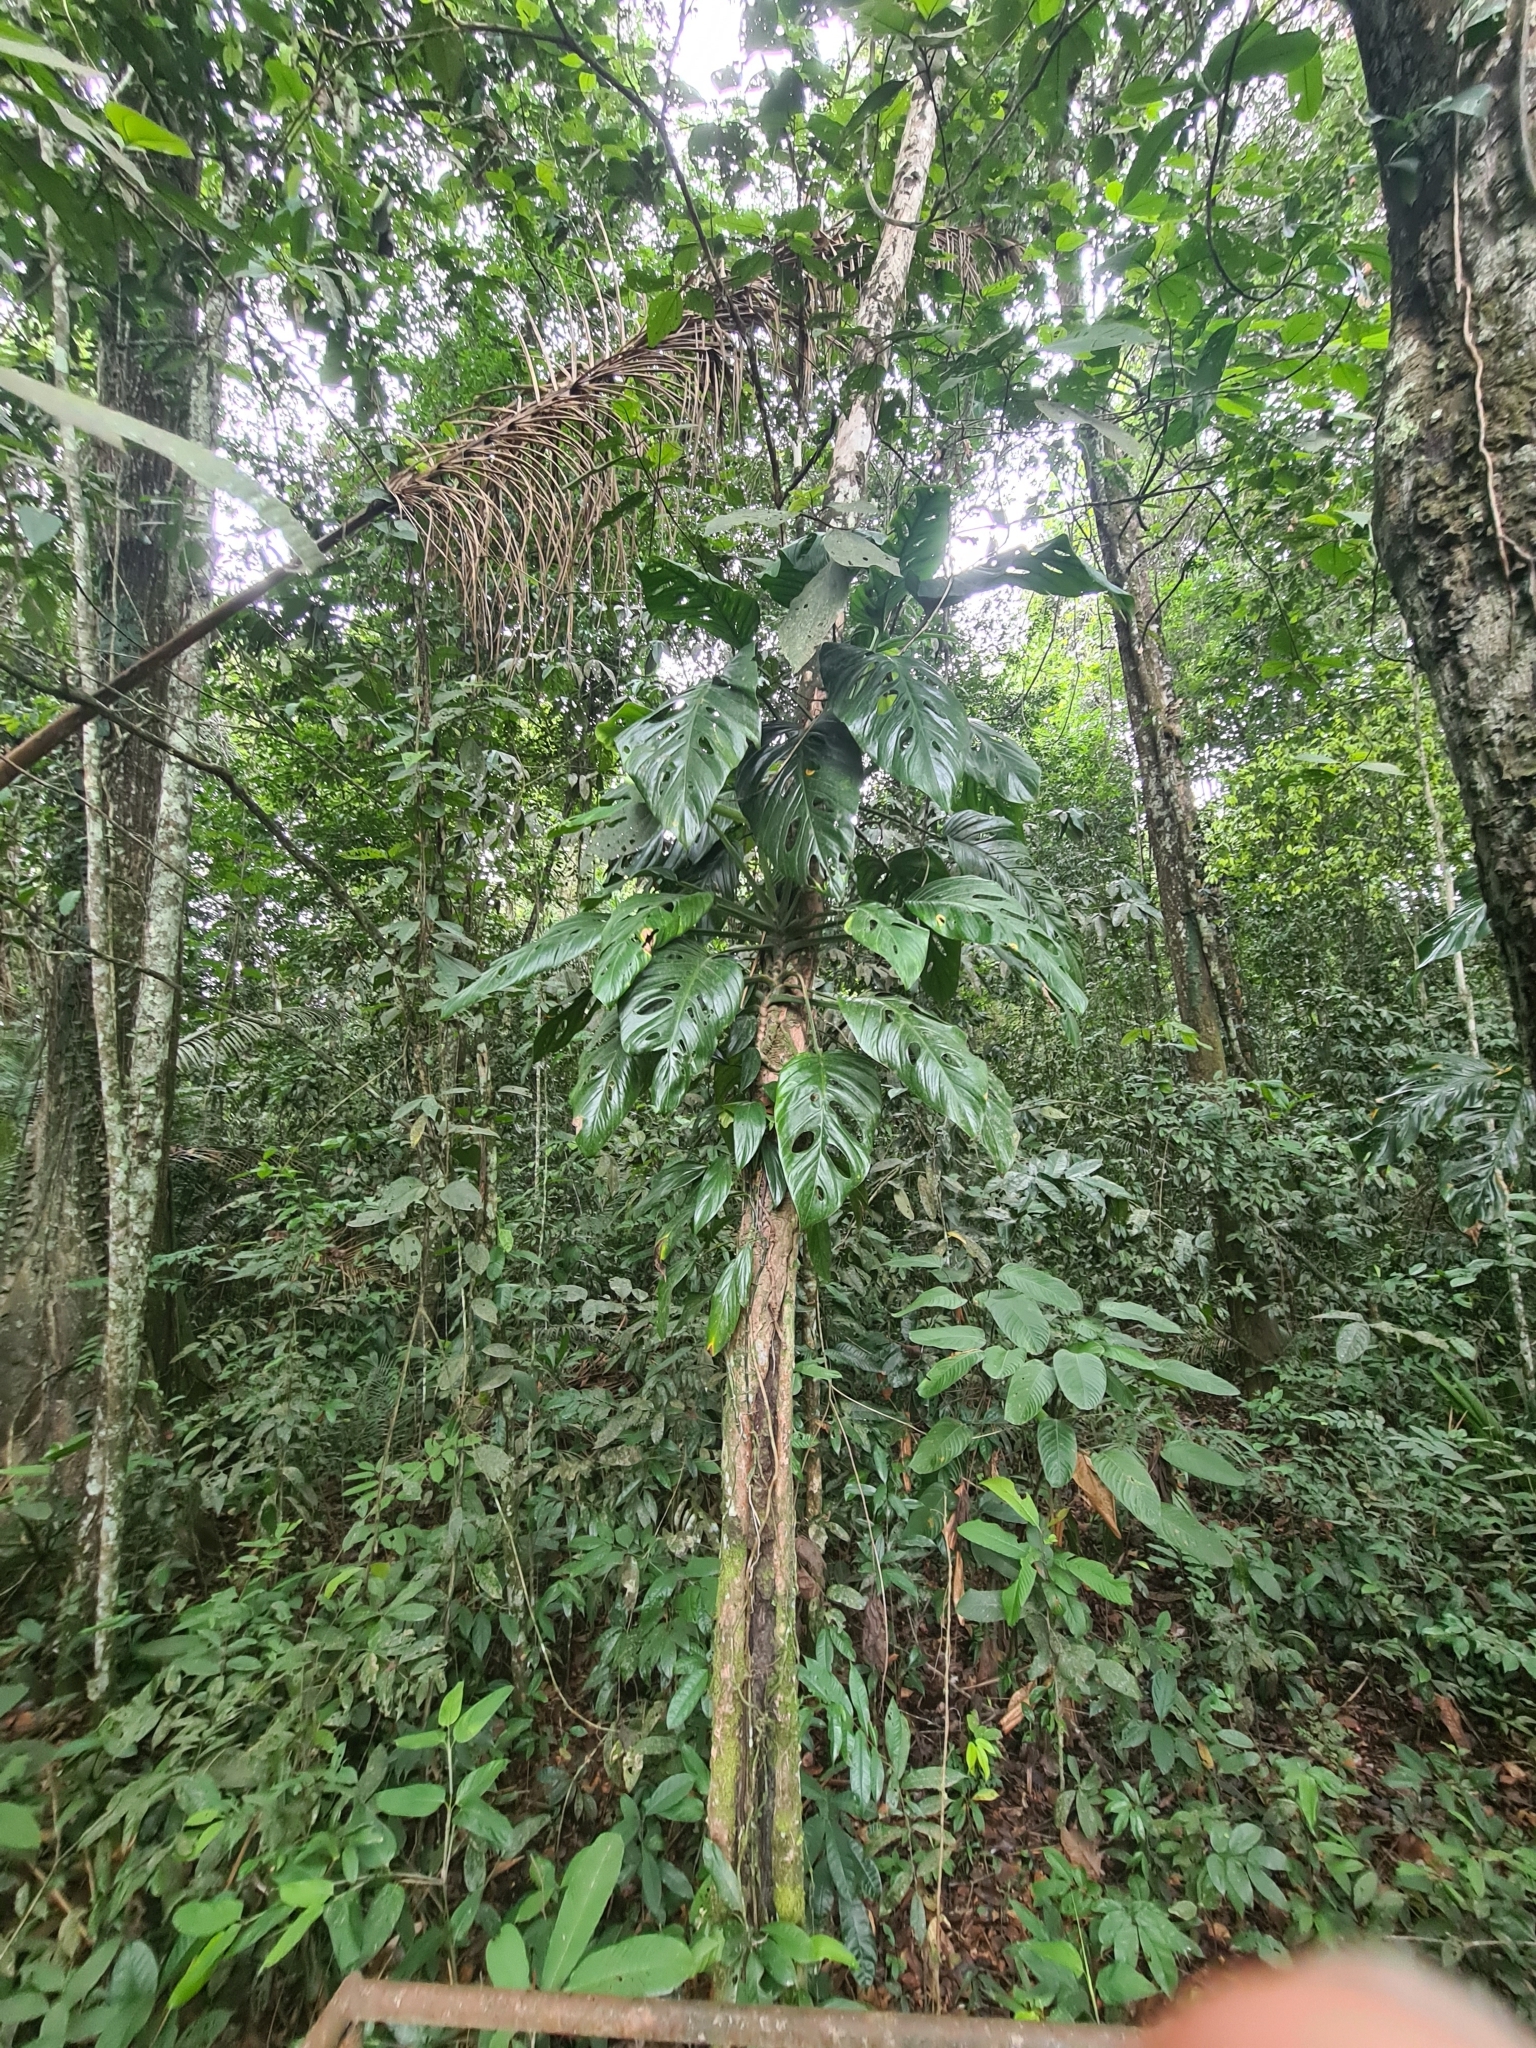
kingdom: Plantae
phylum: Tracheophyta
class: Liliopsida
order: Alismatales
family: Araceae
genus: Monstera
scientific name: Monstera adansonii
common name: Tarovine
